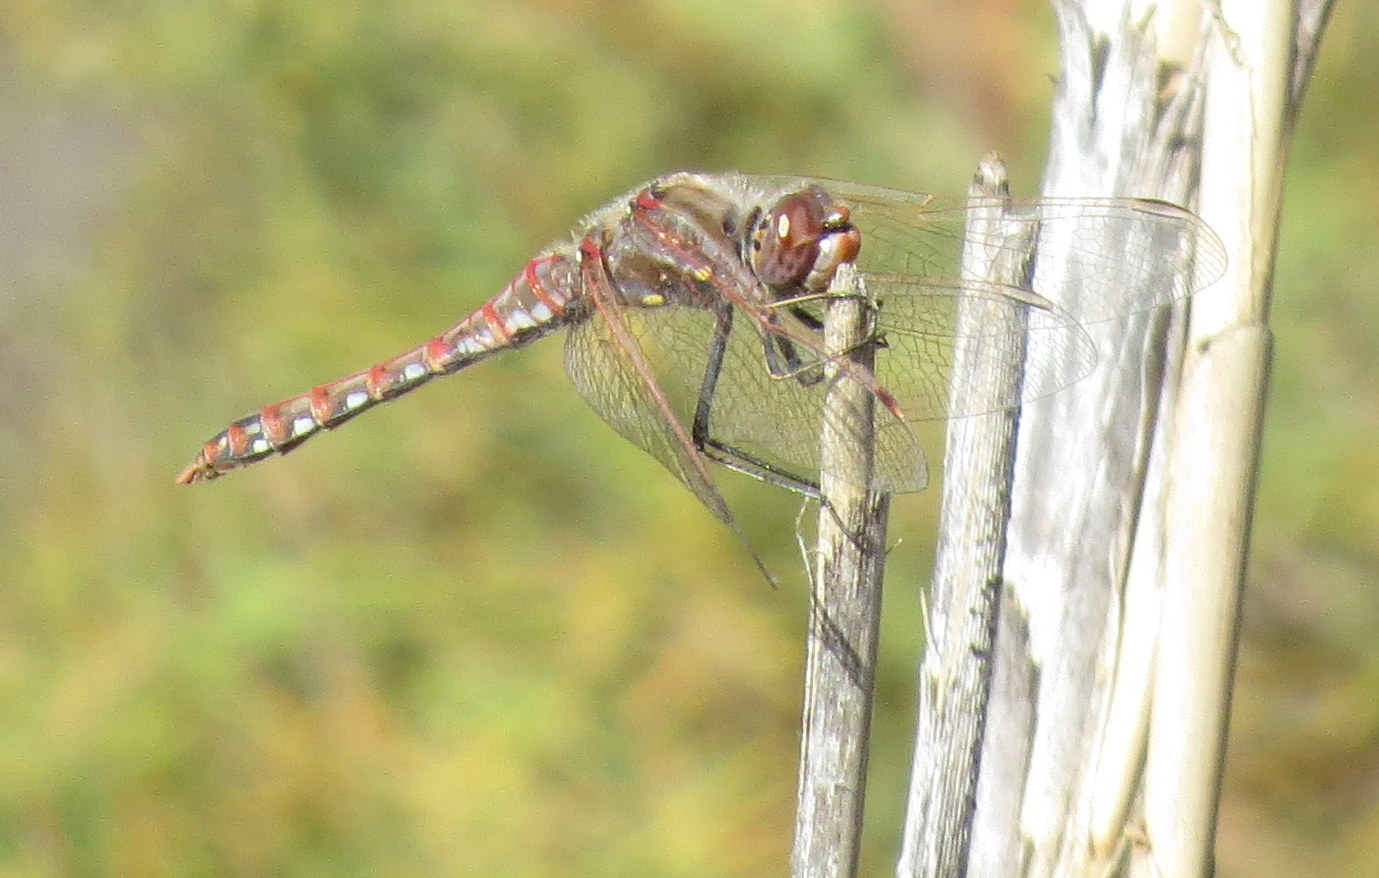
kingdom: Animalia
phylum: Arthropoda
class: Insecta
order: Odonata
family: Libellulidae
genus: Sympetrum
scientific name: Sympetrum corruptum
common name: Variegated meadowhawk
